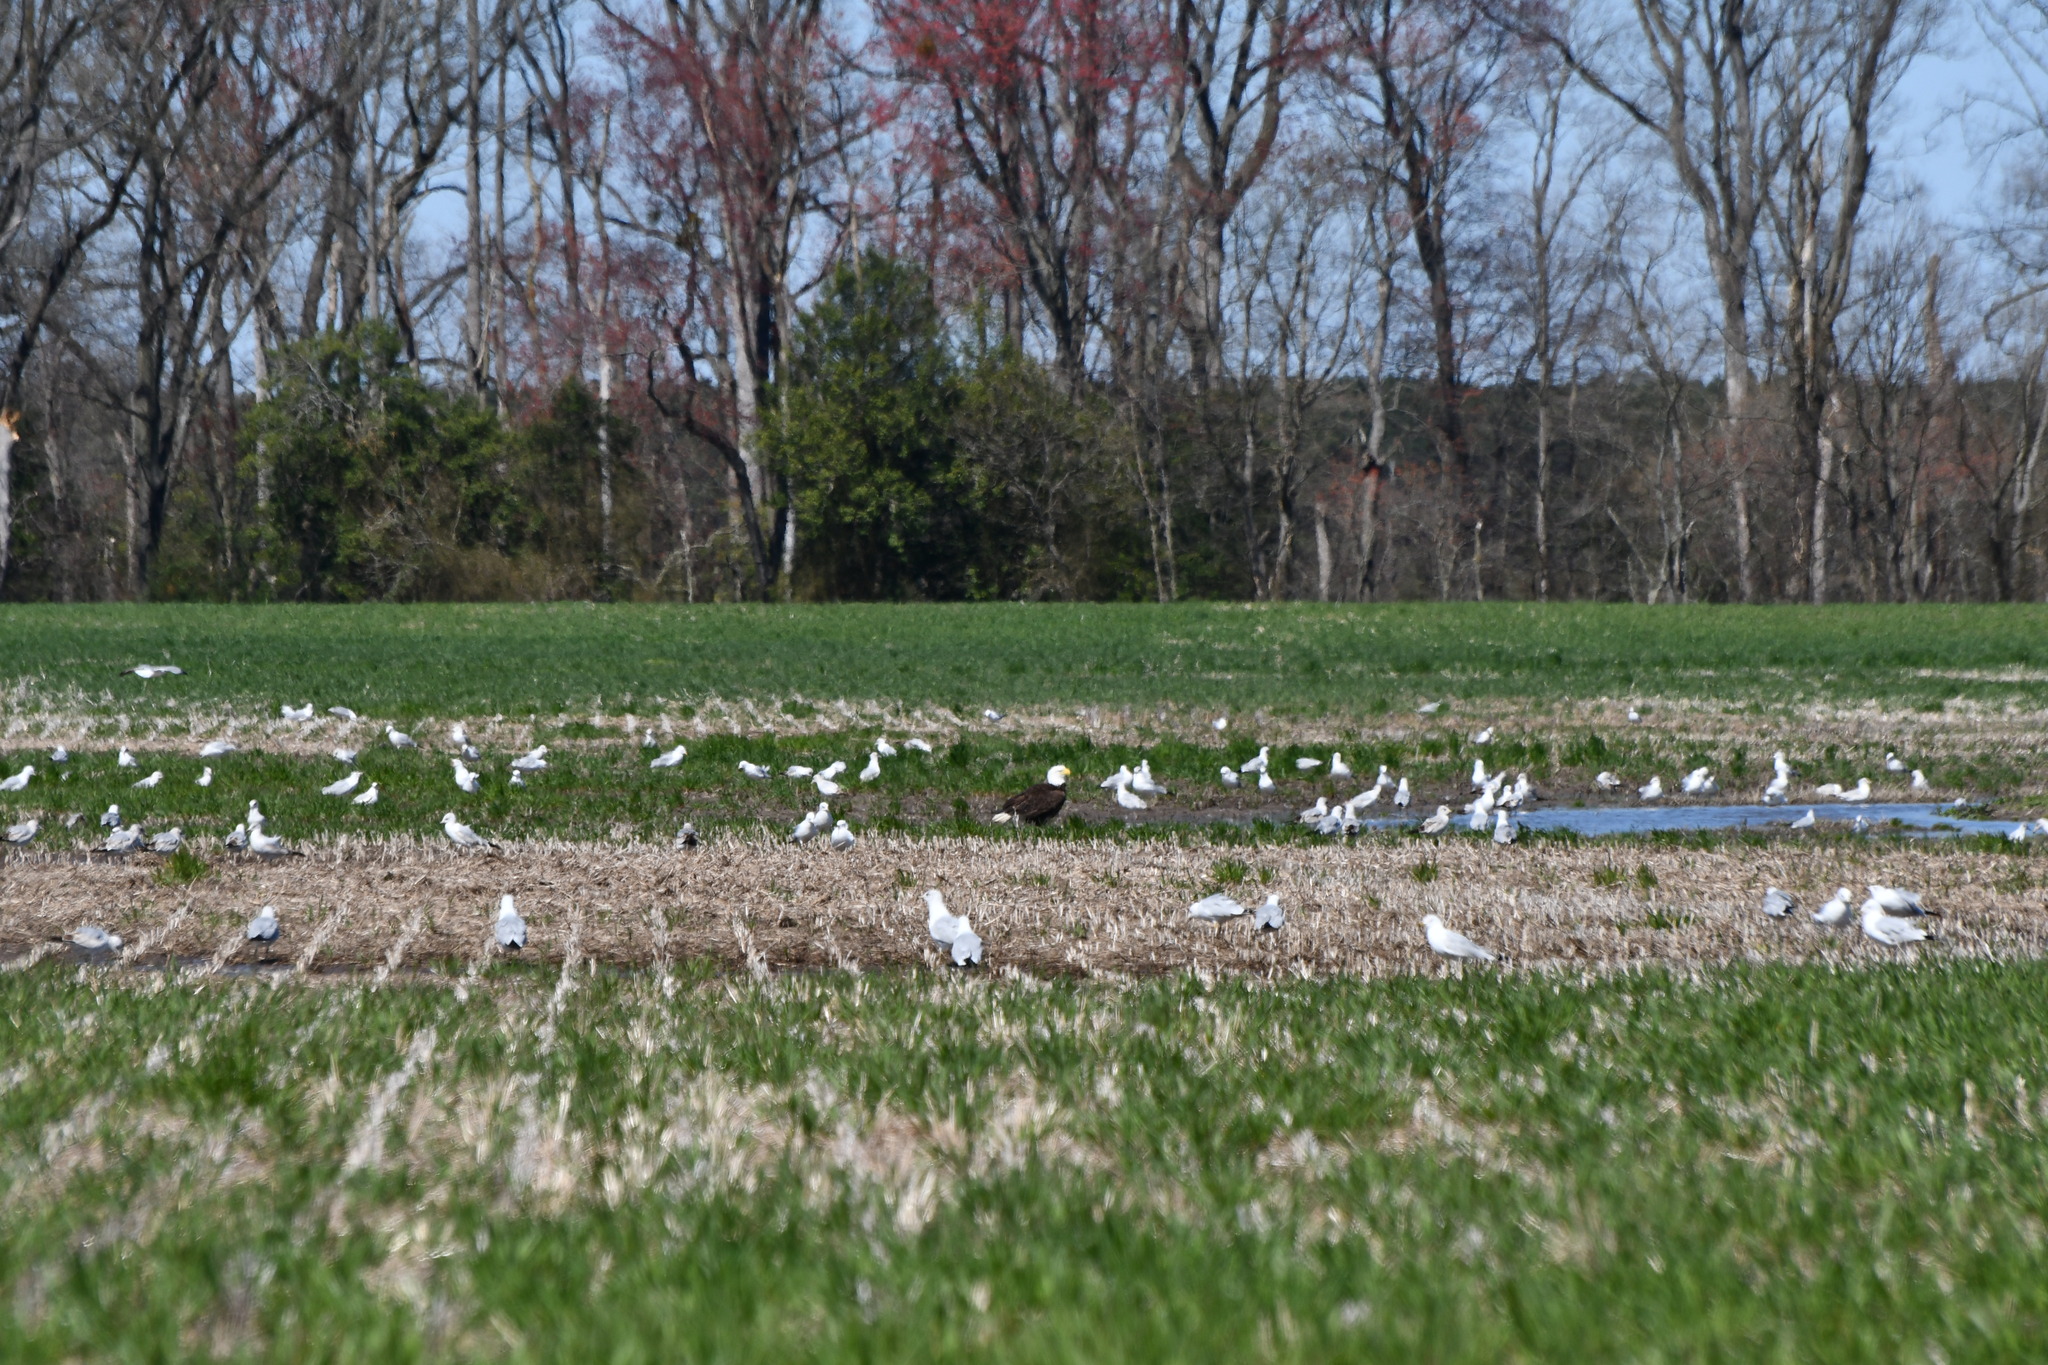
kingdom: Animalia
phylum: Chordata
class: Aves
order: Accipitriformes
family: Accipitridae
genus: Haliaeetus
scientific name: Haliaeetus leucocephalus
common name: Bald eagle
